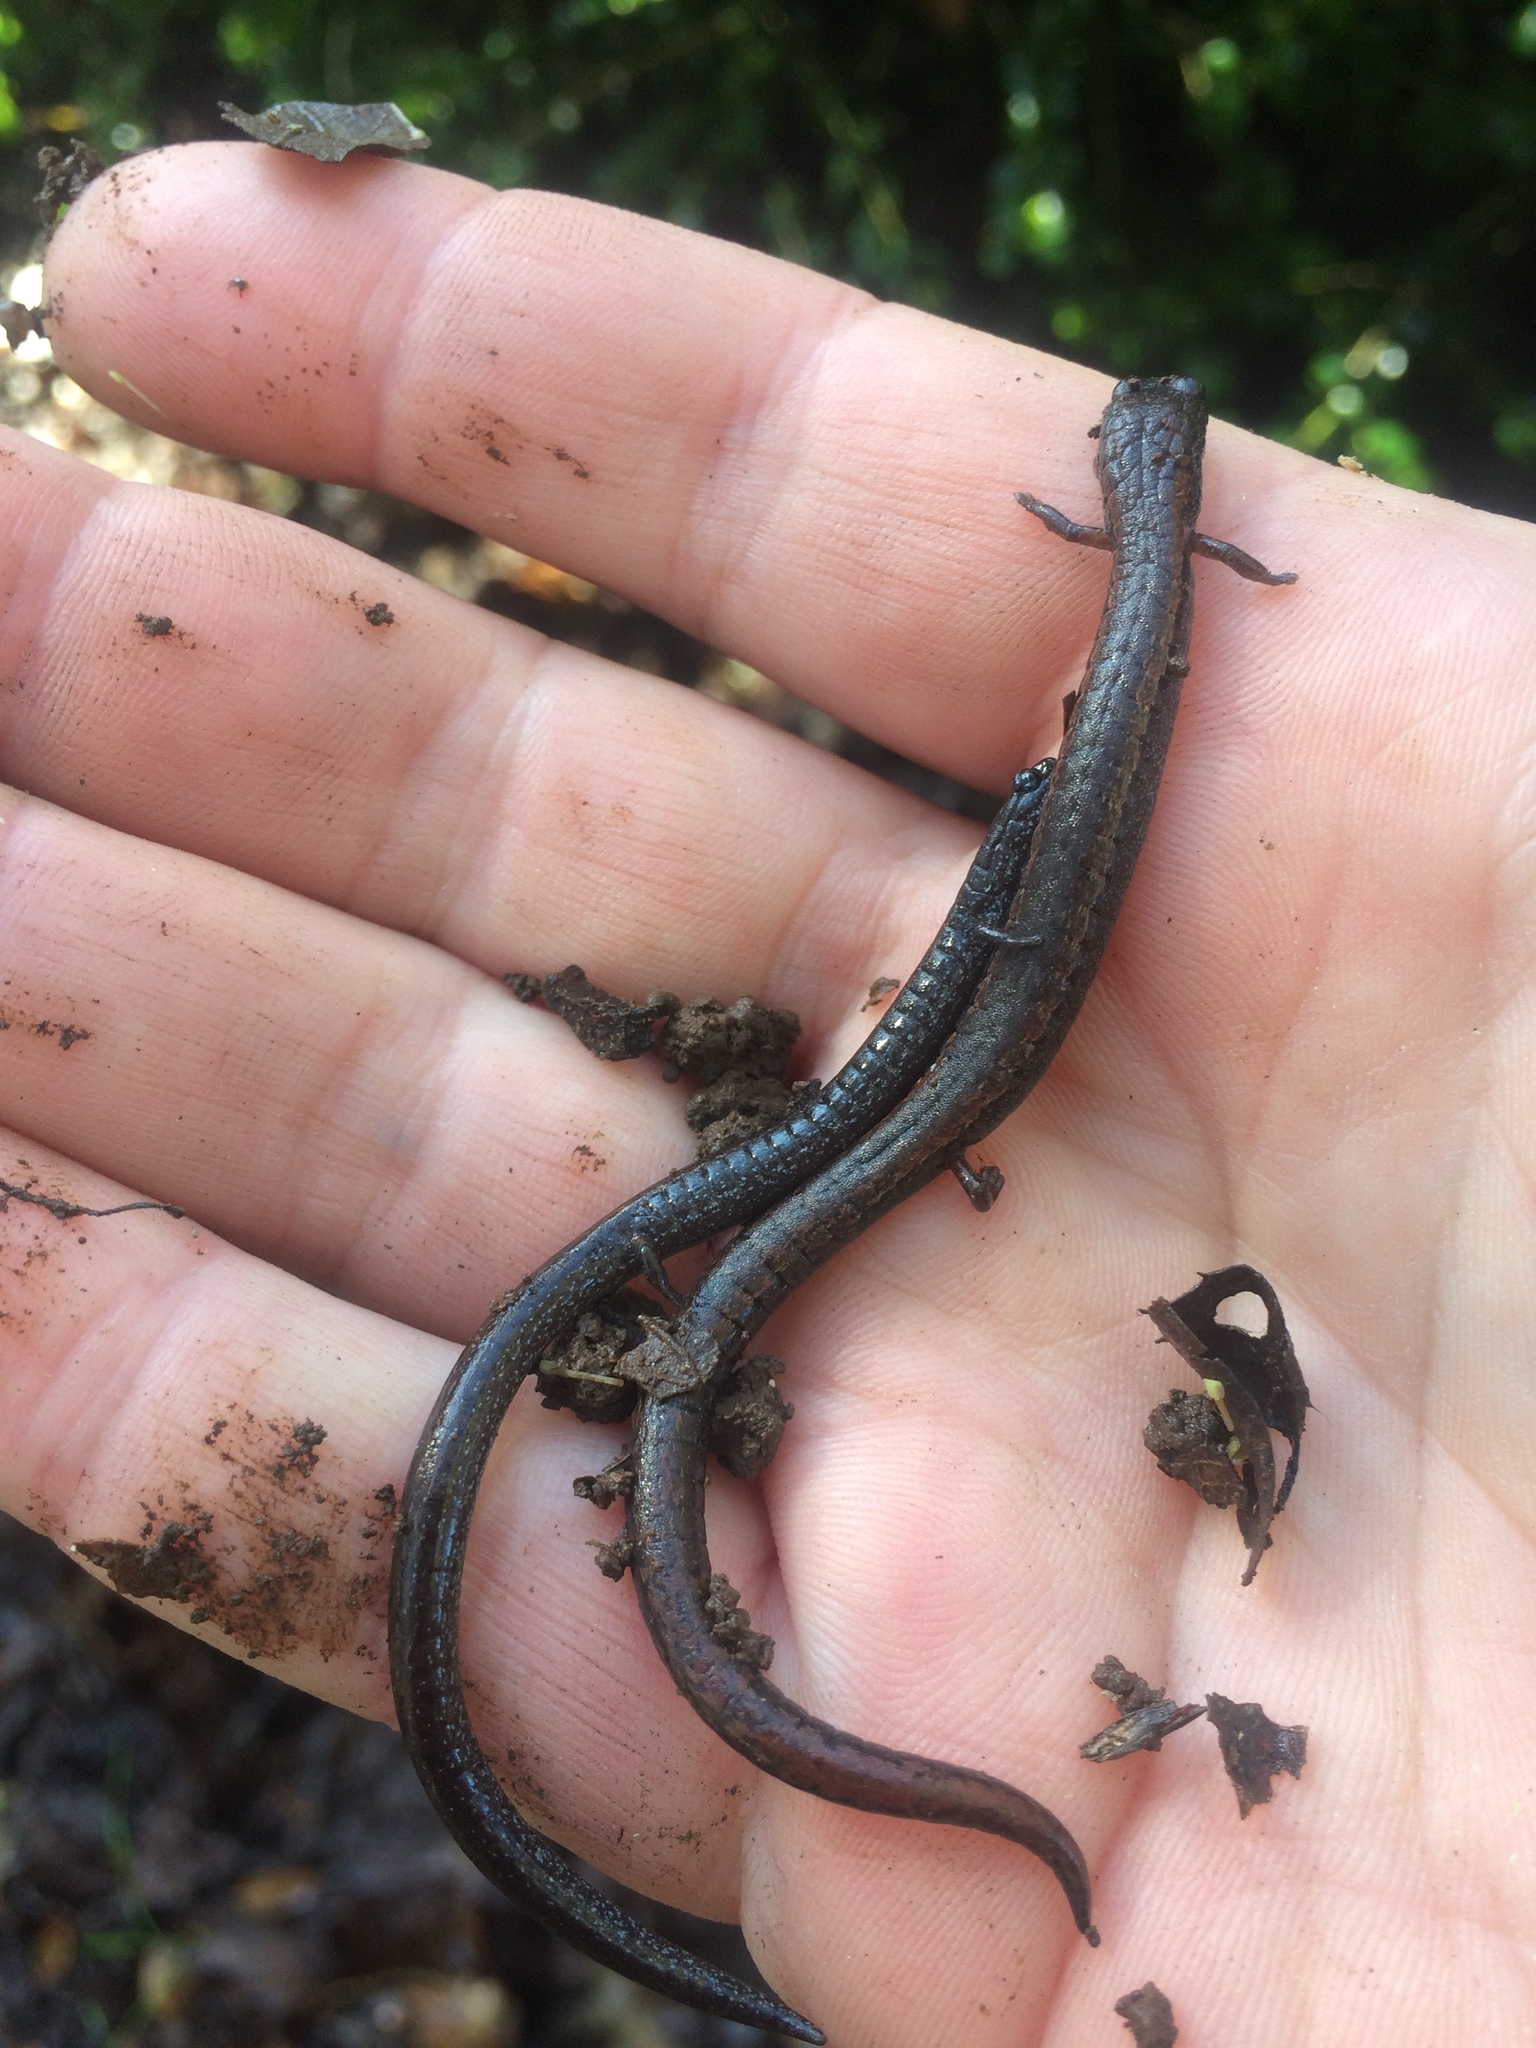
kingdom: Animalia
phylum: Chordata
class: Amphibia
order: Caudata
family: Plethodontidae
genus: Batrachoseps
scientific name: Batrachoseps attenuatus
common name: California slender salamander
